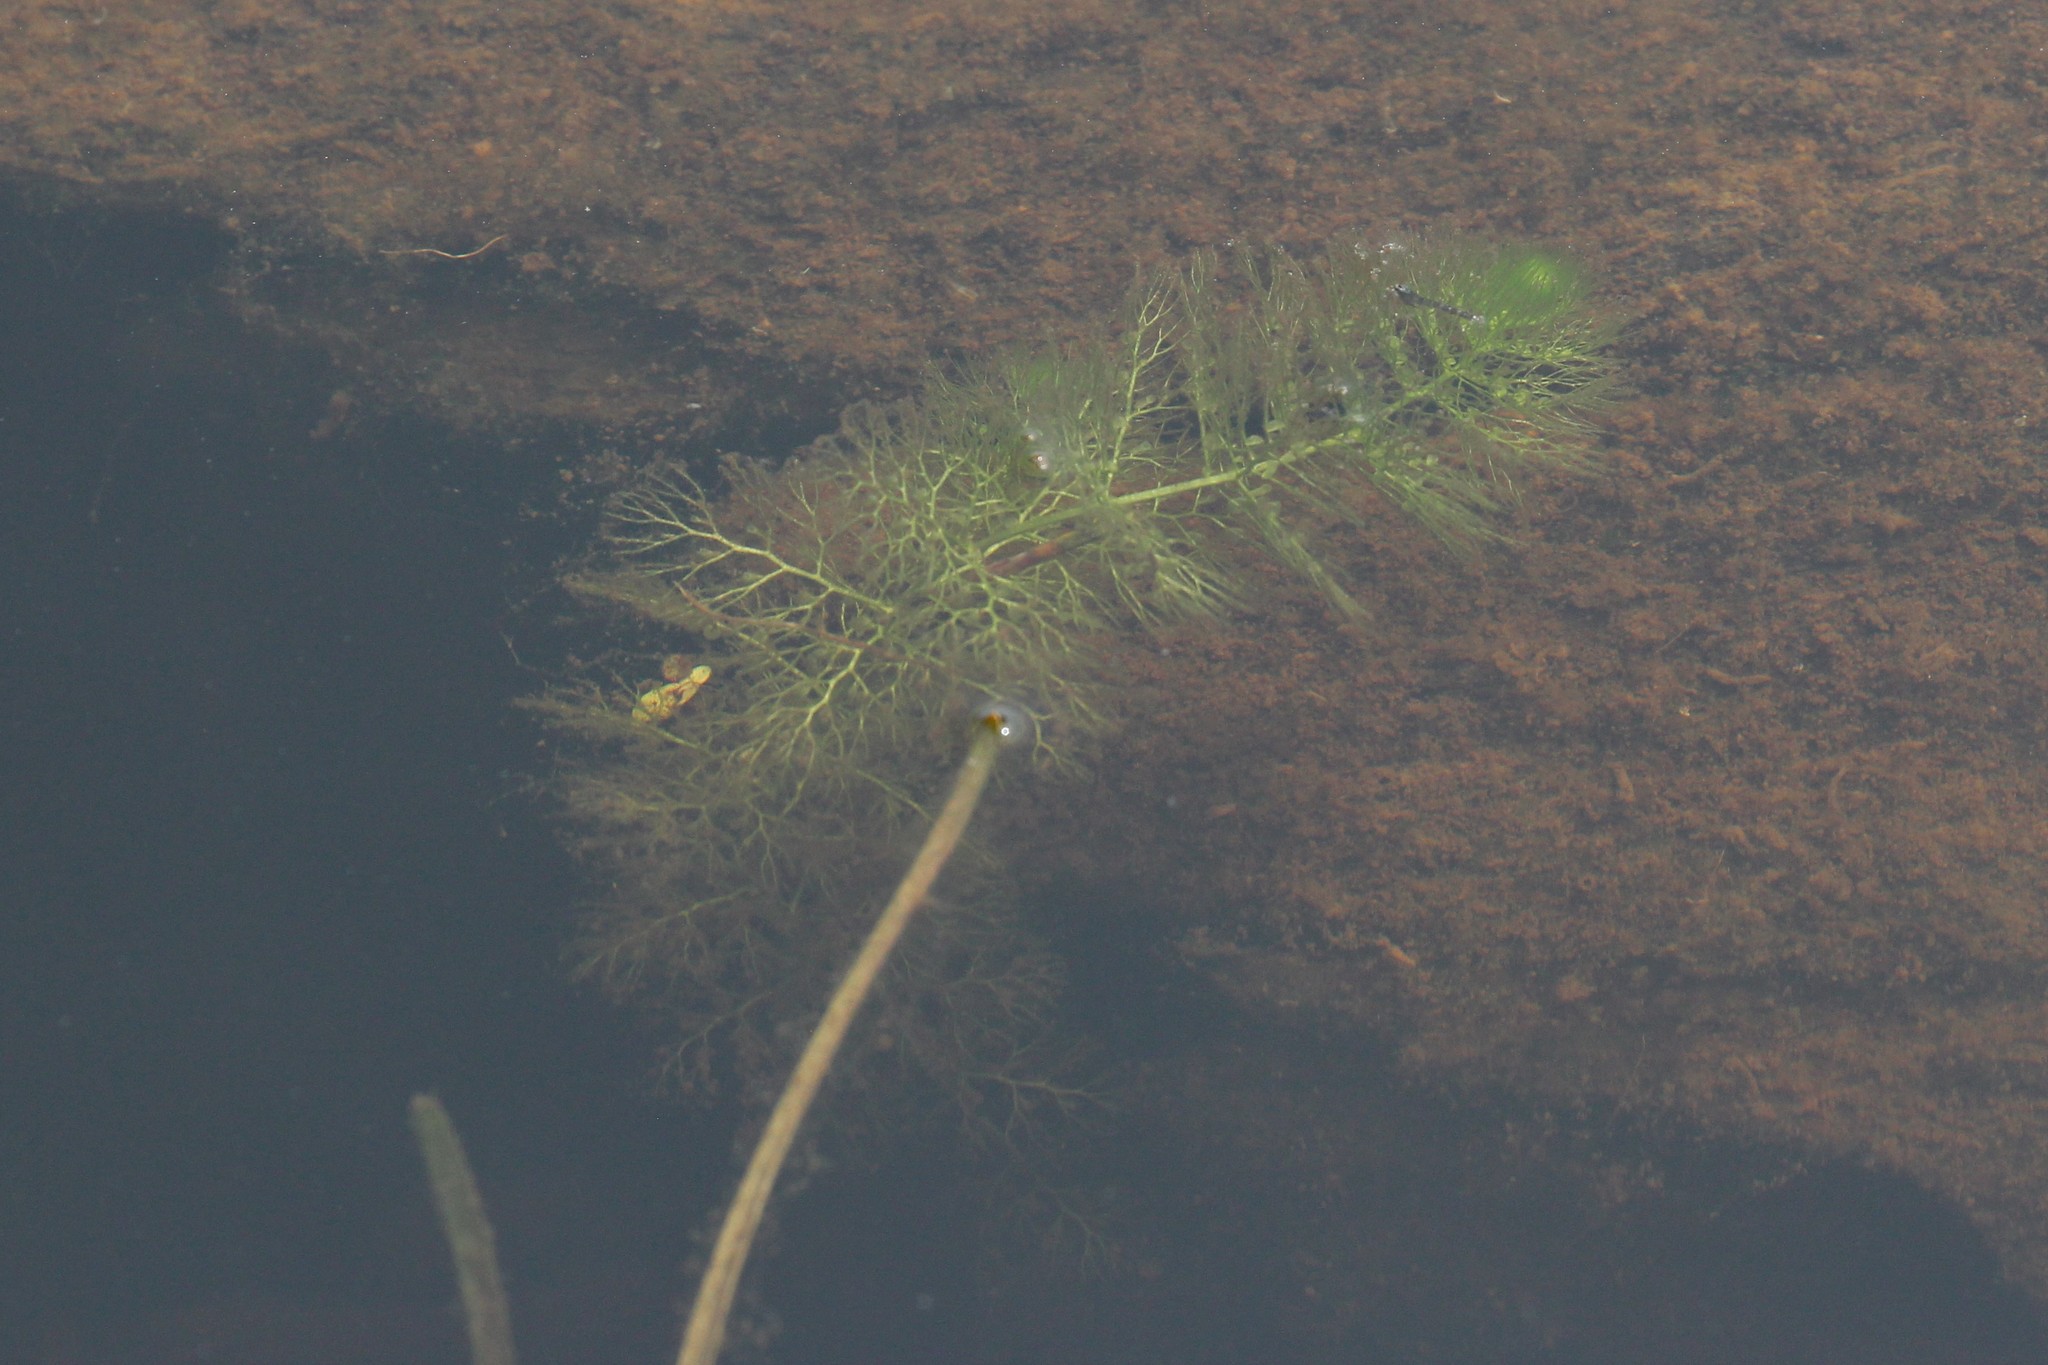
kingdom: Plantae
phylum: Tracheophyta
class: Magnoliopsida
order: Lamiales
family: Lentibulariaceae
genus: Utricularia
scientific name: Utricularia macrorhiza
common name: Common bladderwort
